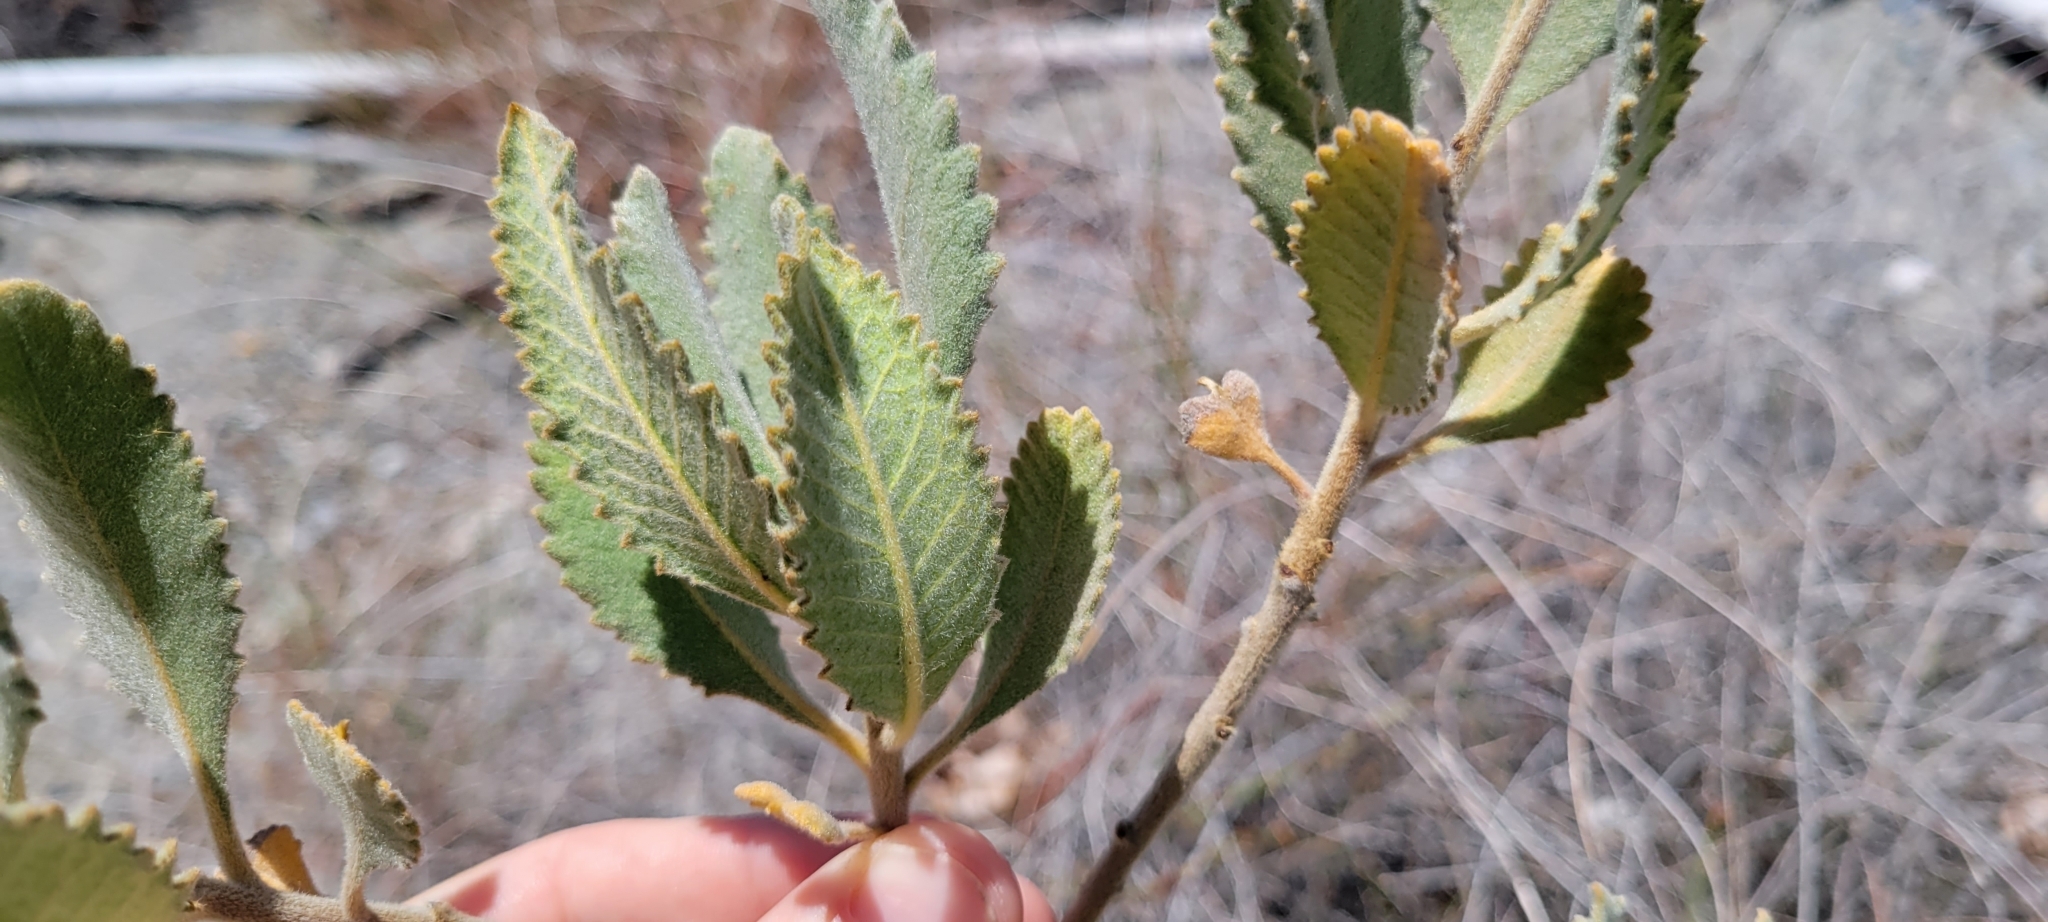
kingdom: Plantae
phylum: Tracheophyta
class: Magnoliopsida
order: Boraginales
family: Namaceae
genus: Eriodictyon
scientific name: Eriodictyon crassifolium
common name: Thick-leaf yerba-santa
